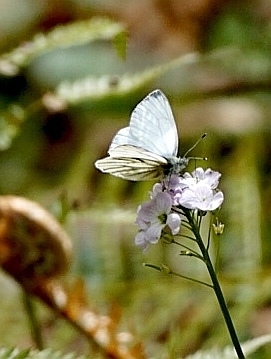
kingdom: Animalia
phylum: Arthropoda
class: Insecta
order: Lepidoptera
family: Pieridae
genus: Pieris
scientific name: Pieris napi
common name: Green-veined white
